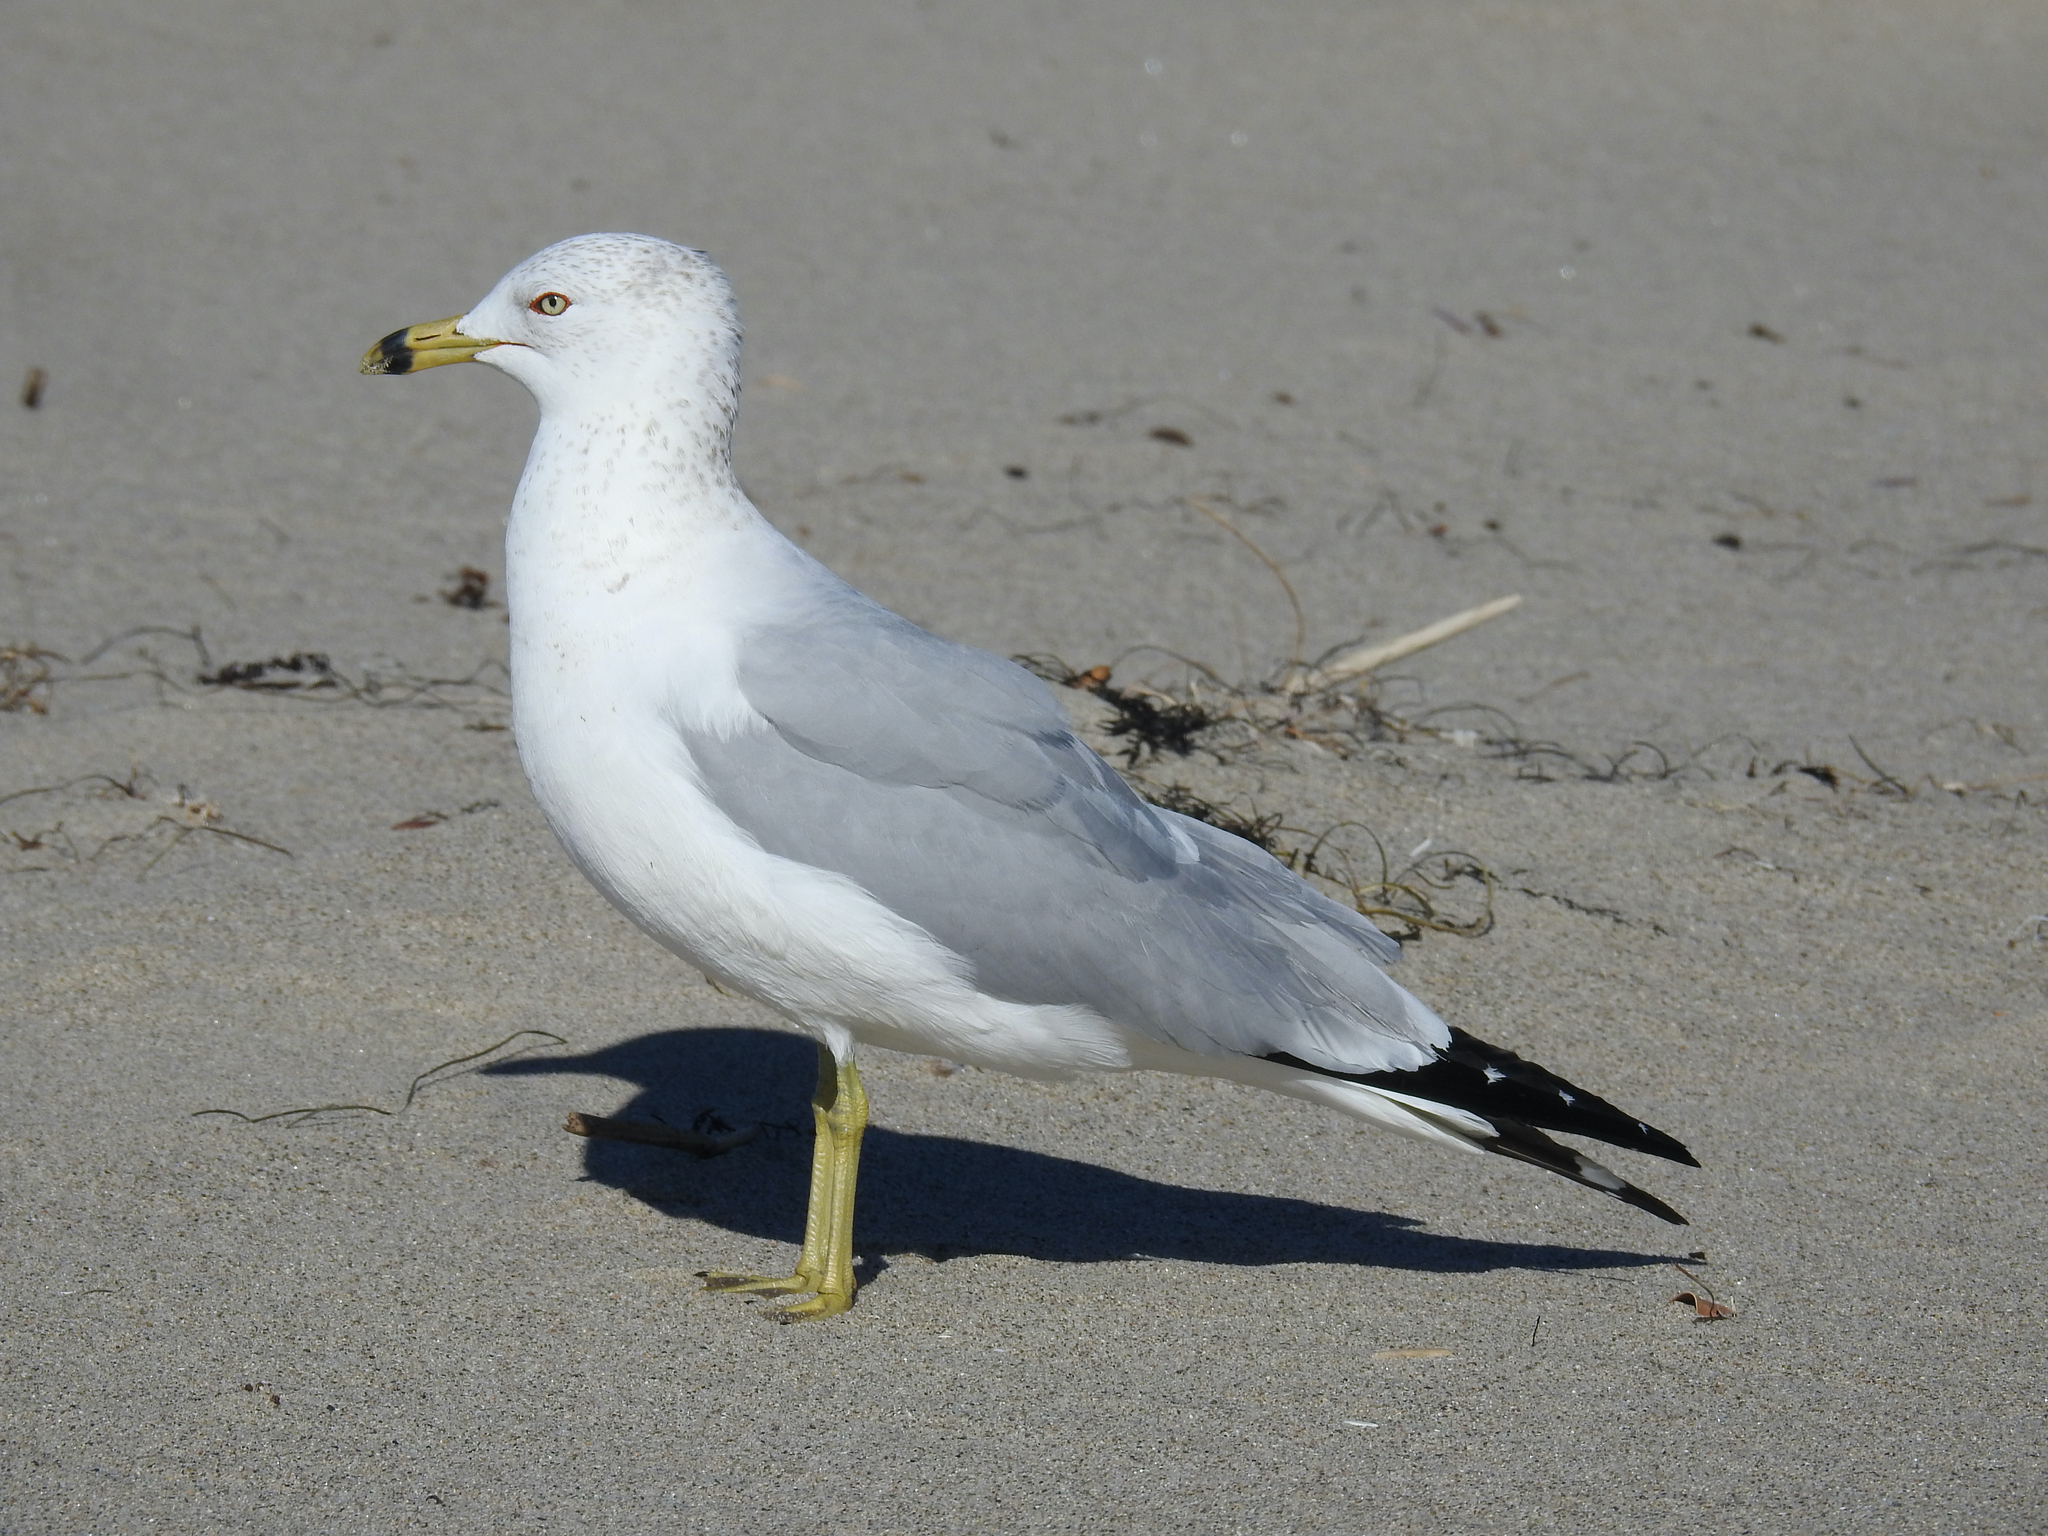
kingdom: Animalia
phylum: Chordata
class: Aves
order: Charadriiformes
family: Laridae
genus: Larus
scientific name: Larus delawarensis
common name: Ring-billed gull
